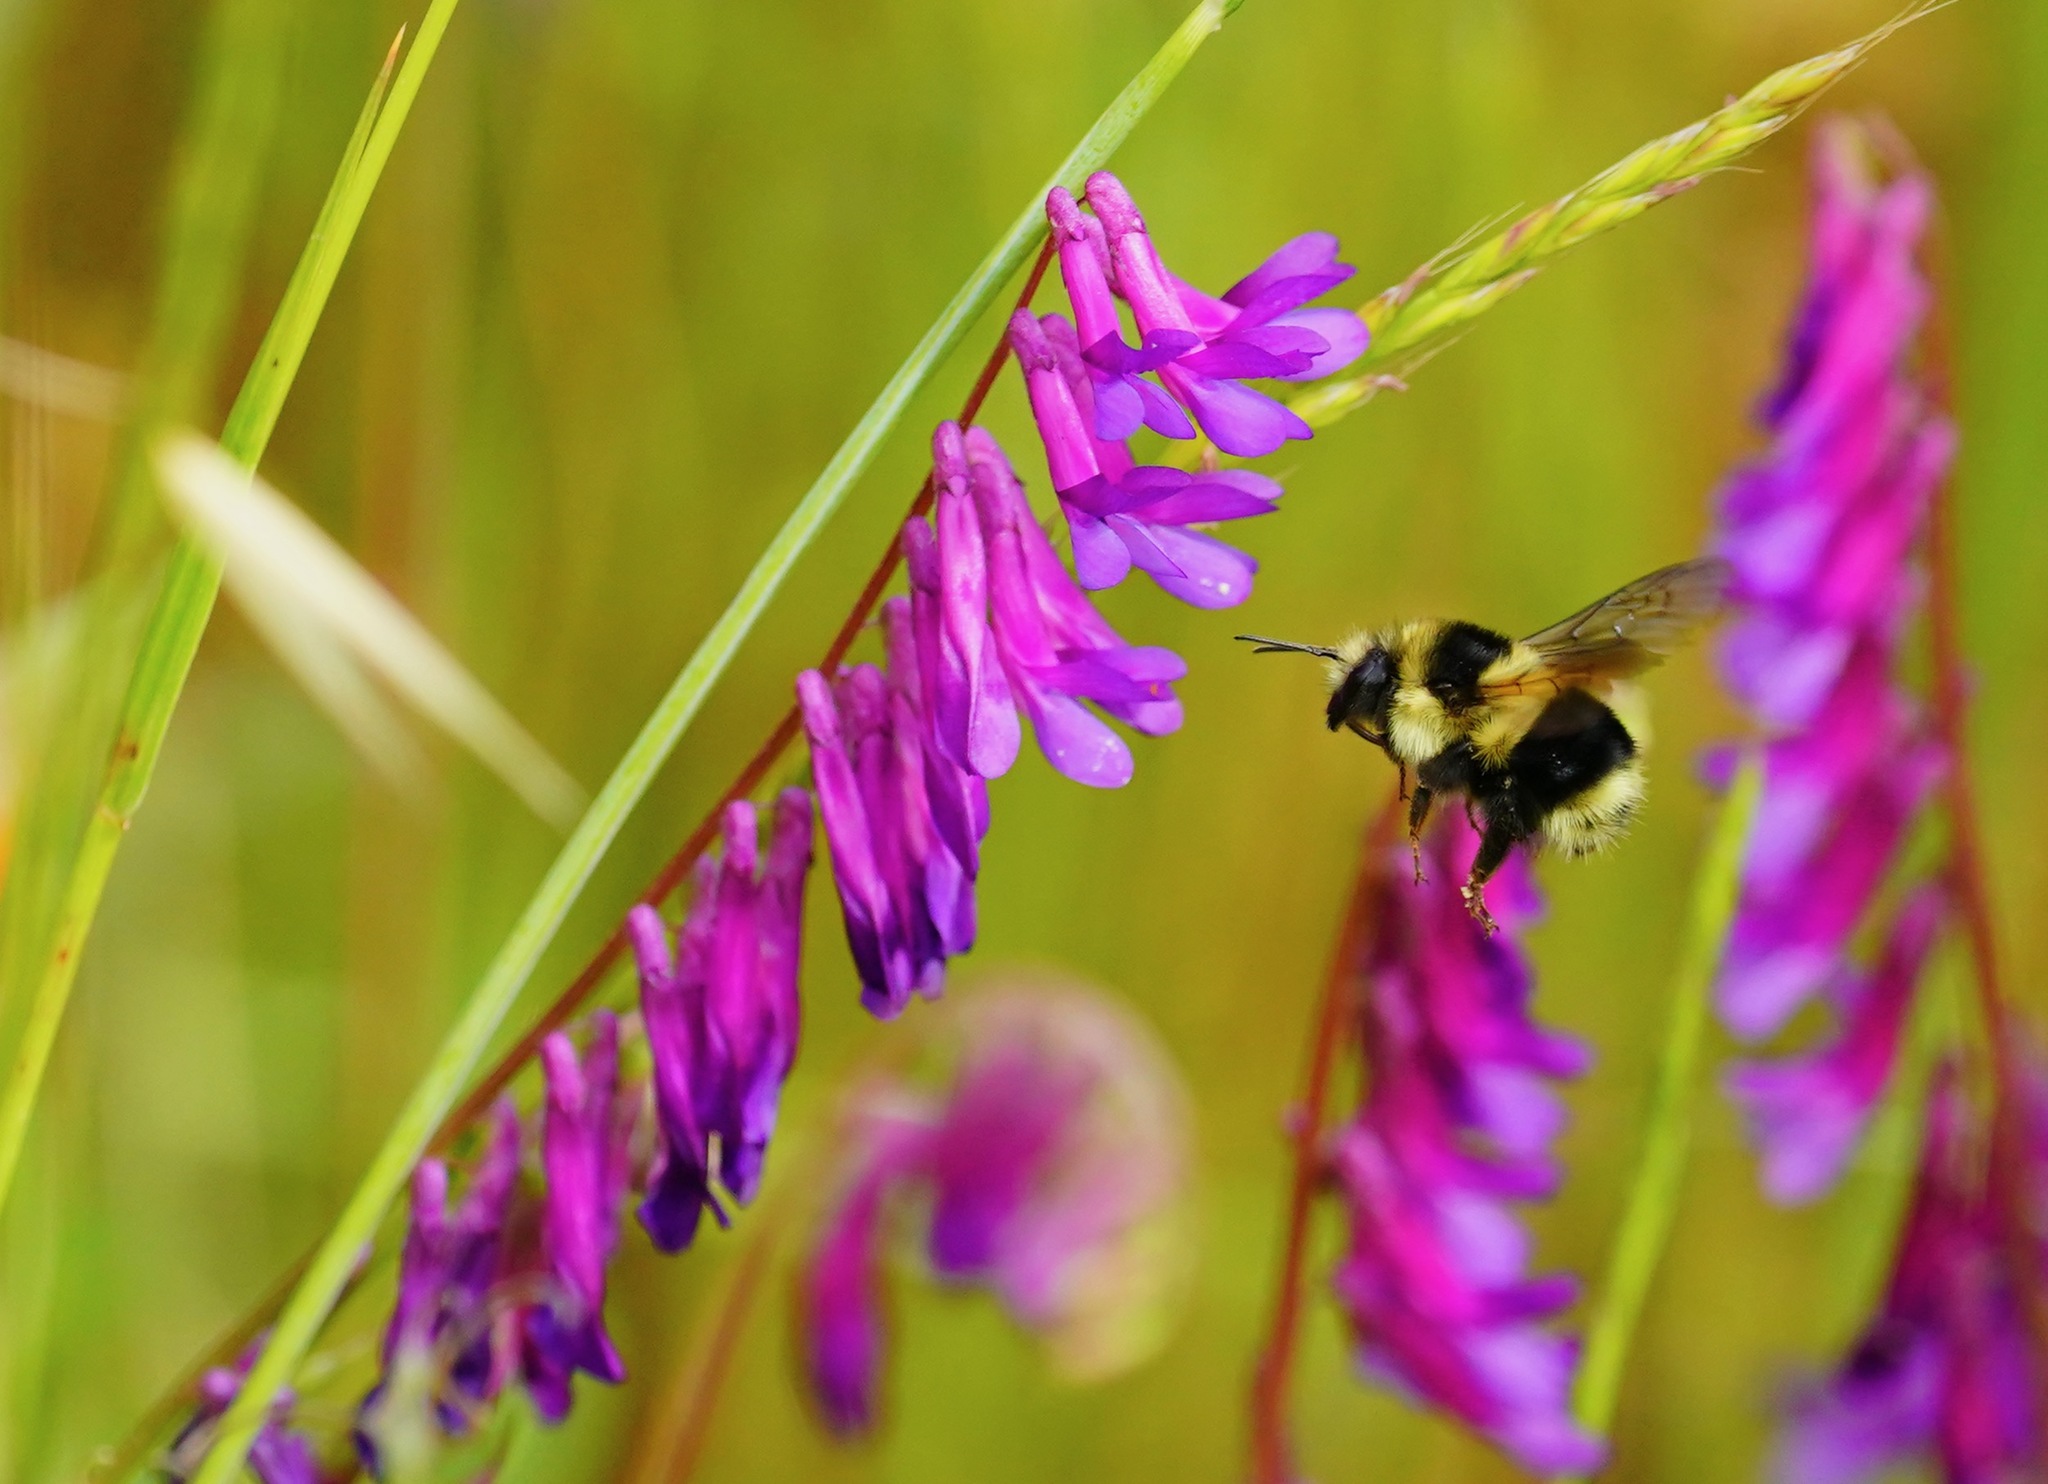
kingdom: Animalia
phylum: Arthropoda
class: Insecta
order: Hymenoptera
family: Apidae
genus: Bombus
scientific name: Bombus melanopygus
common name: Black tail bumble bee
